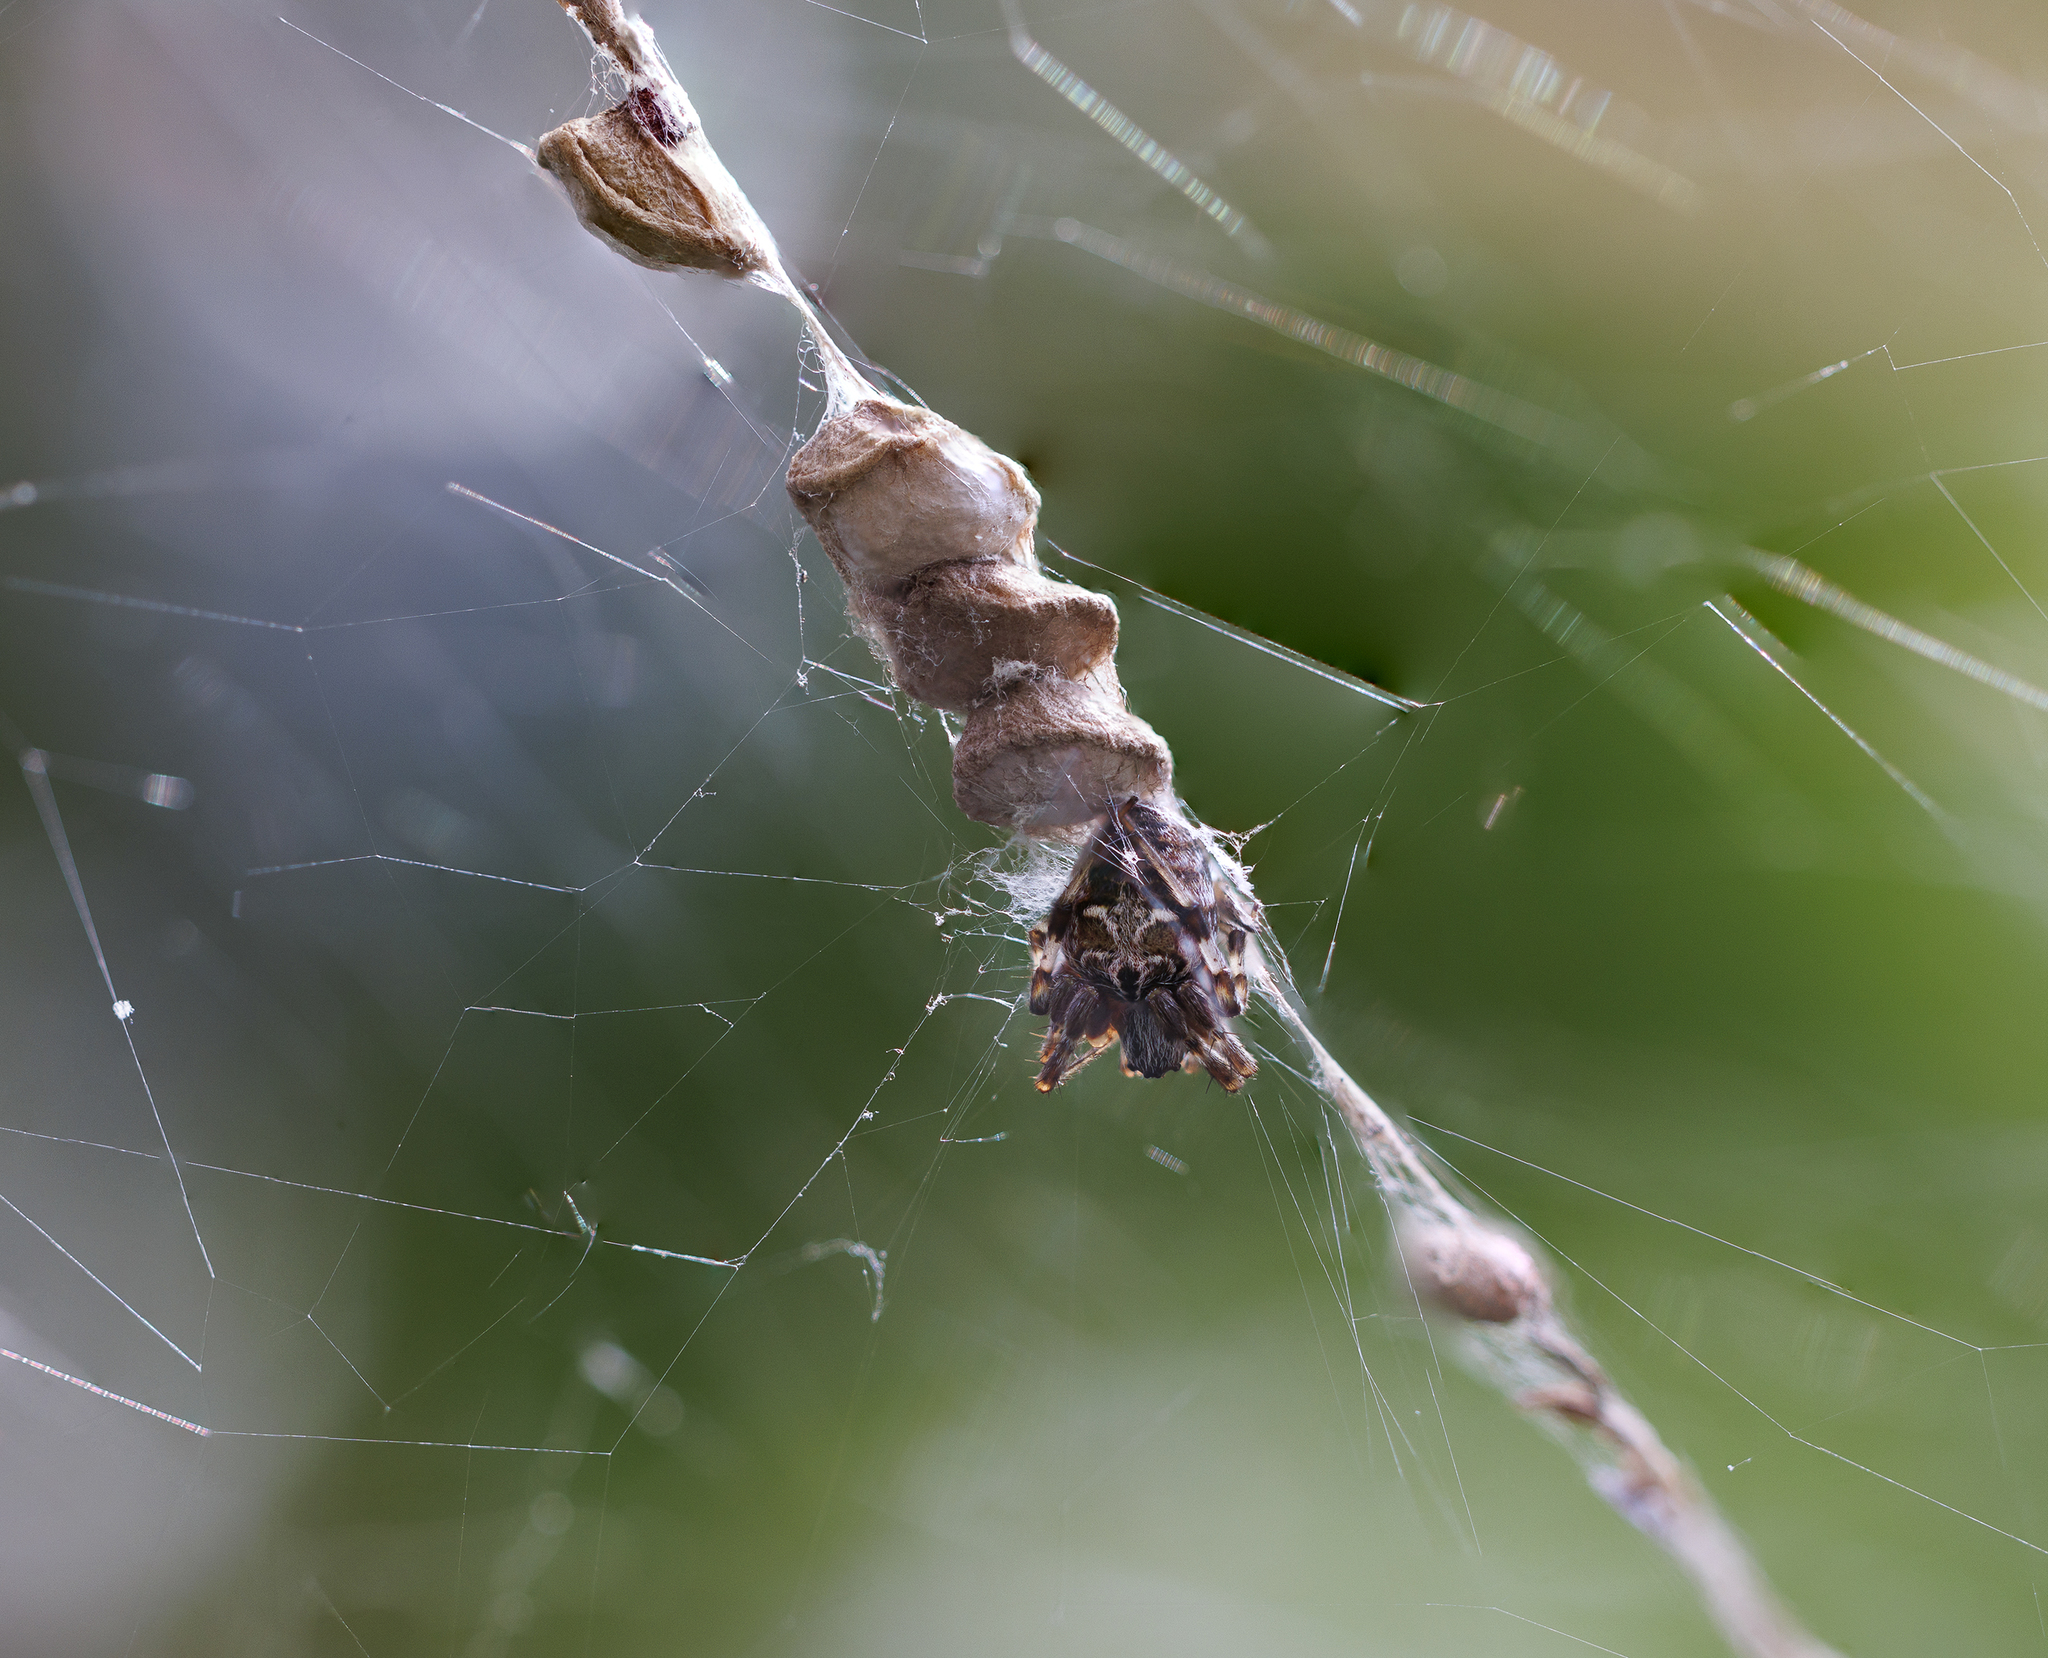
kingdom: Animalia
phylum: Arthropoda
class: Arachnida
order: Araneae
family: Araneidae
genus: Metepeira
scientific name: Metepeira labyrinthea
